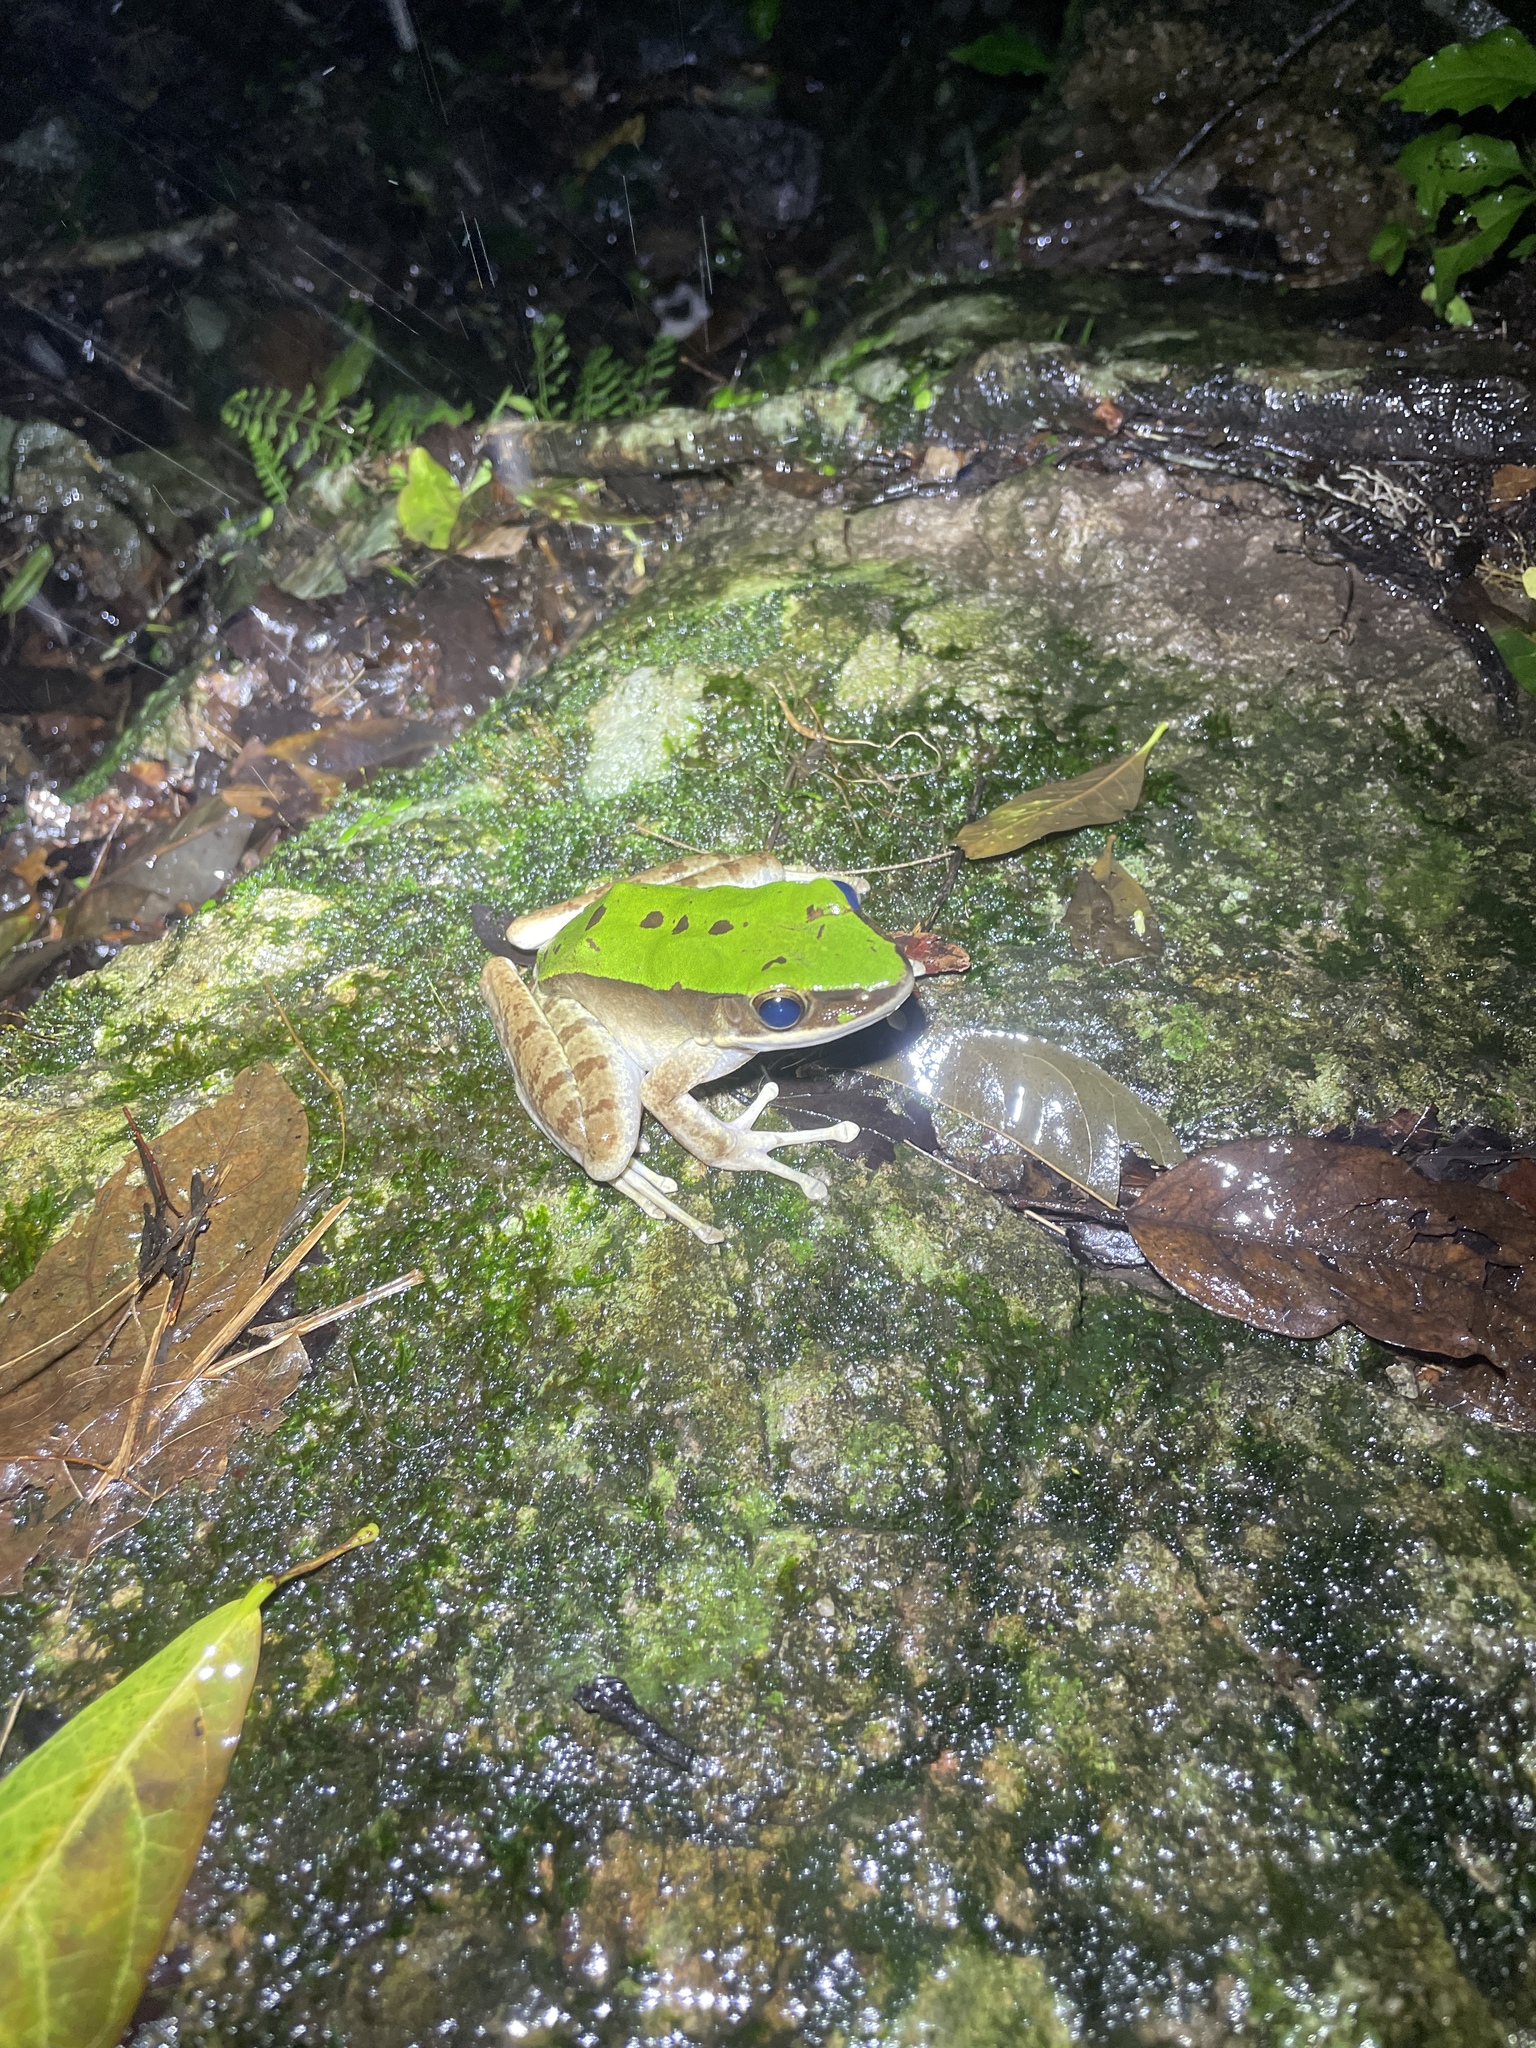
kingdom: Animalia
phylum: Chordata
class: Amphibia
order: Anura
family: Ranidae
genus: Odorrana
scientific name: Odorrana graminea
